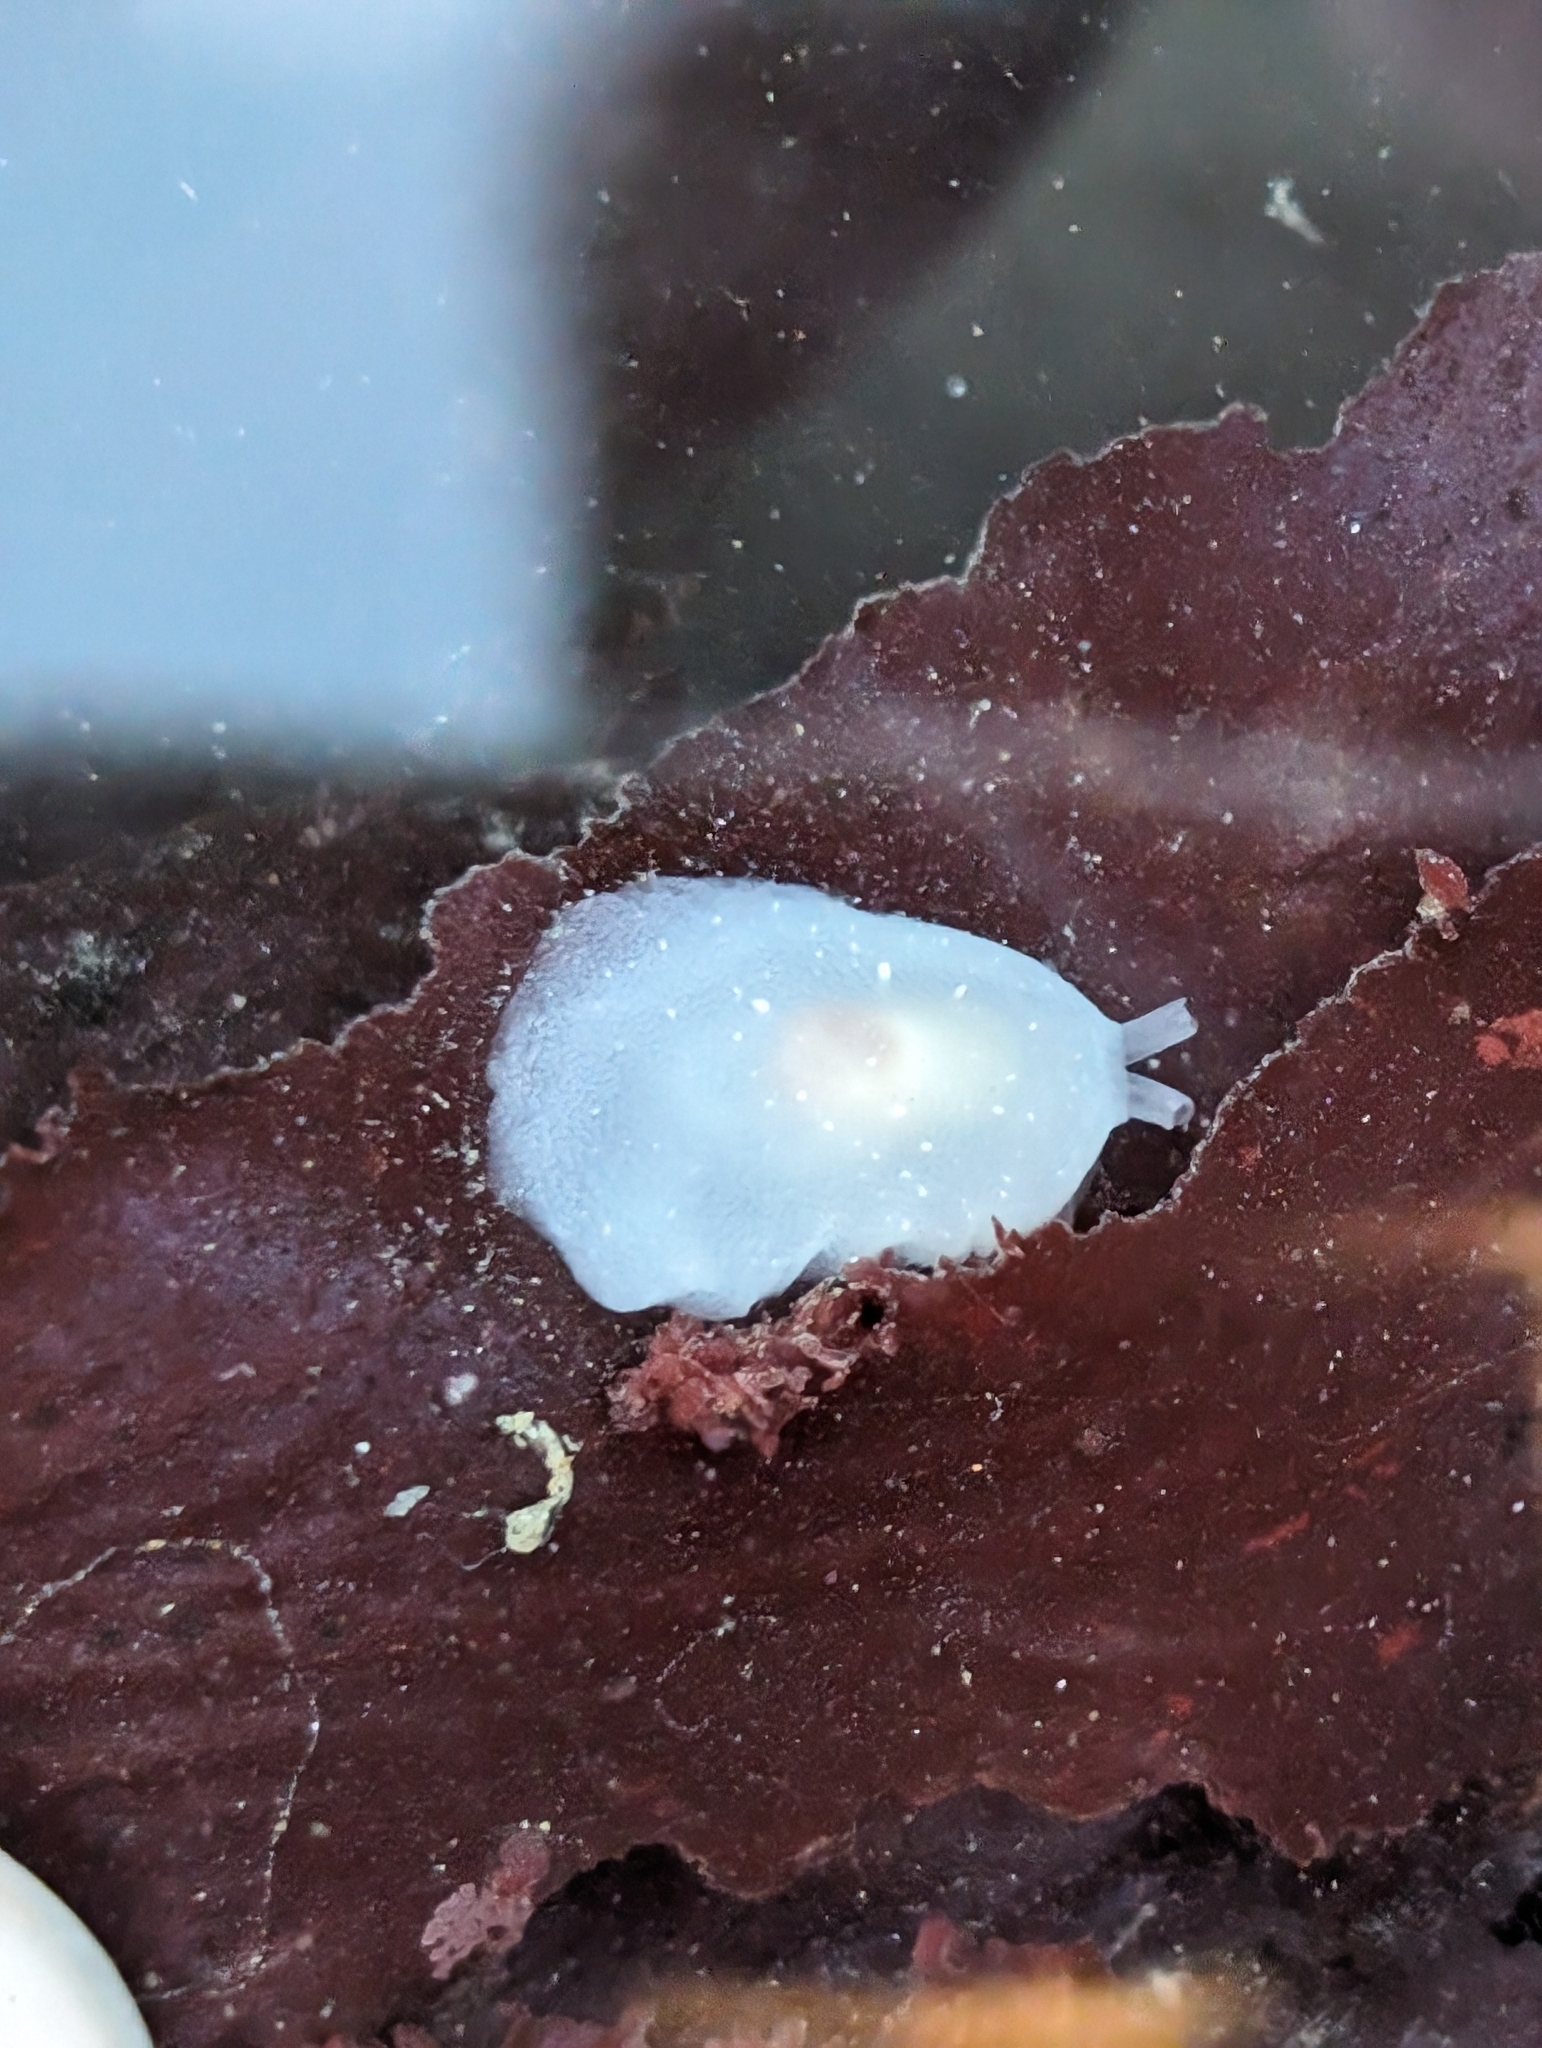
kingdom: Animalia
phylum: Mollusca
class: Gastropoda
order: Pleurobranchida
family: Pleurobranchidae
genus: Pleurehdera
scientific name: Pleurehdera
